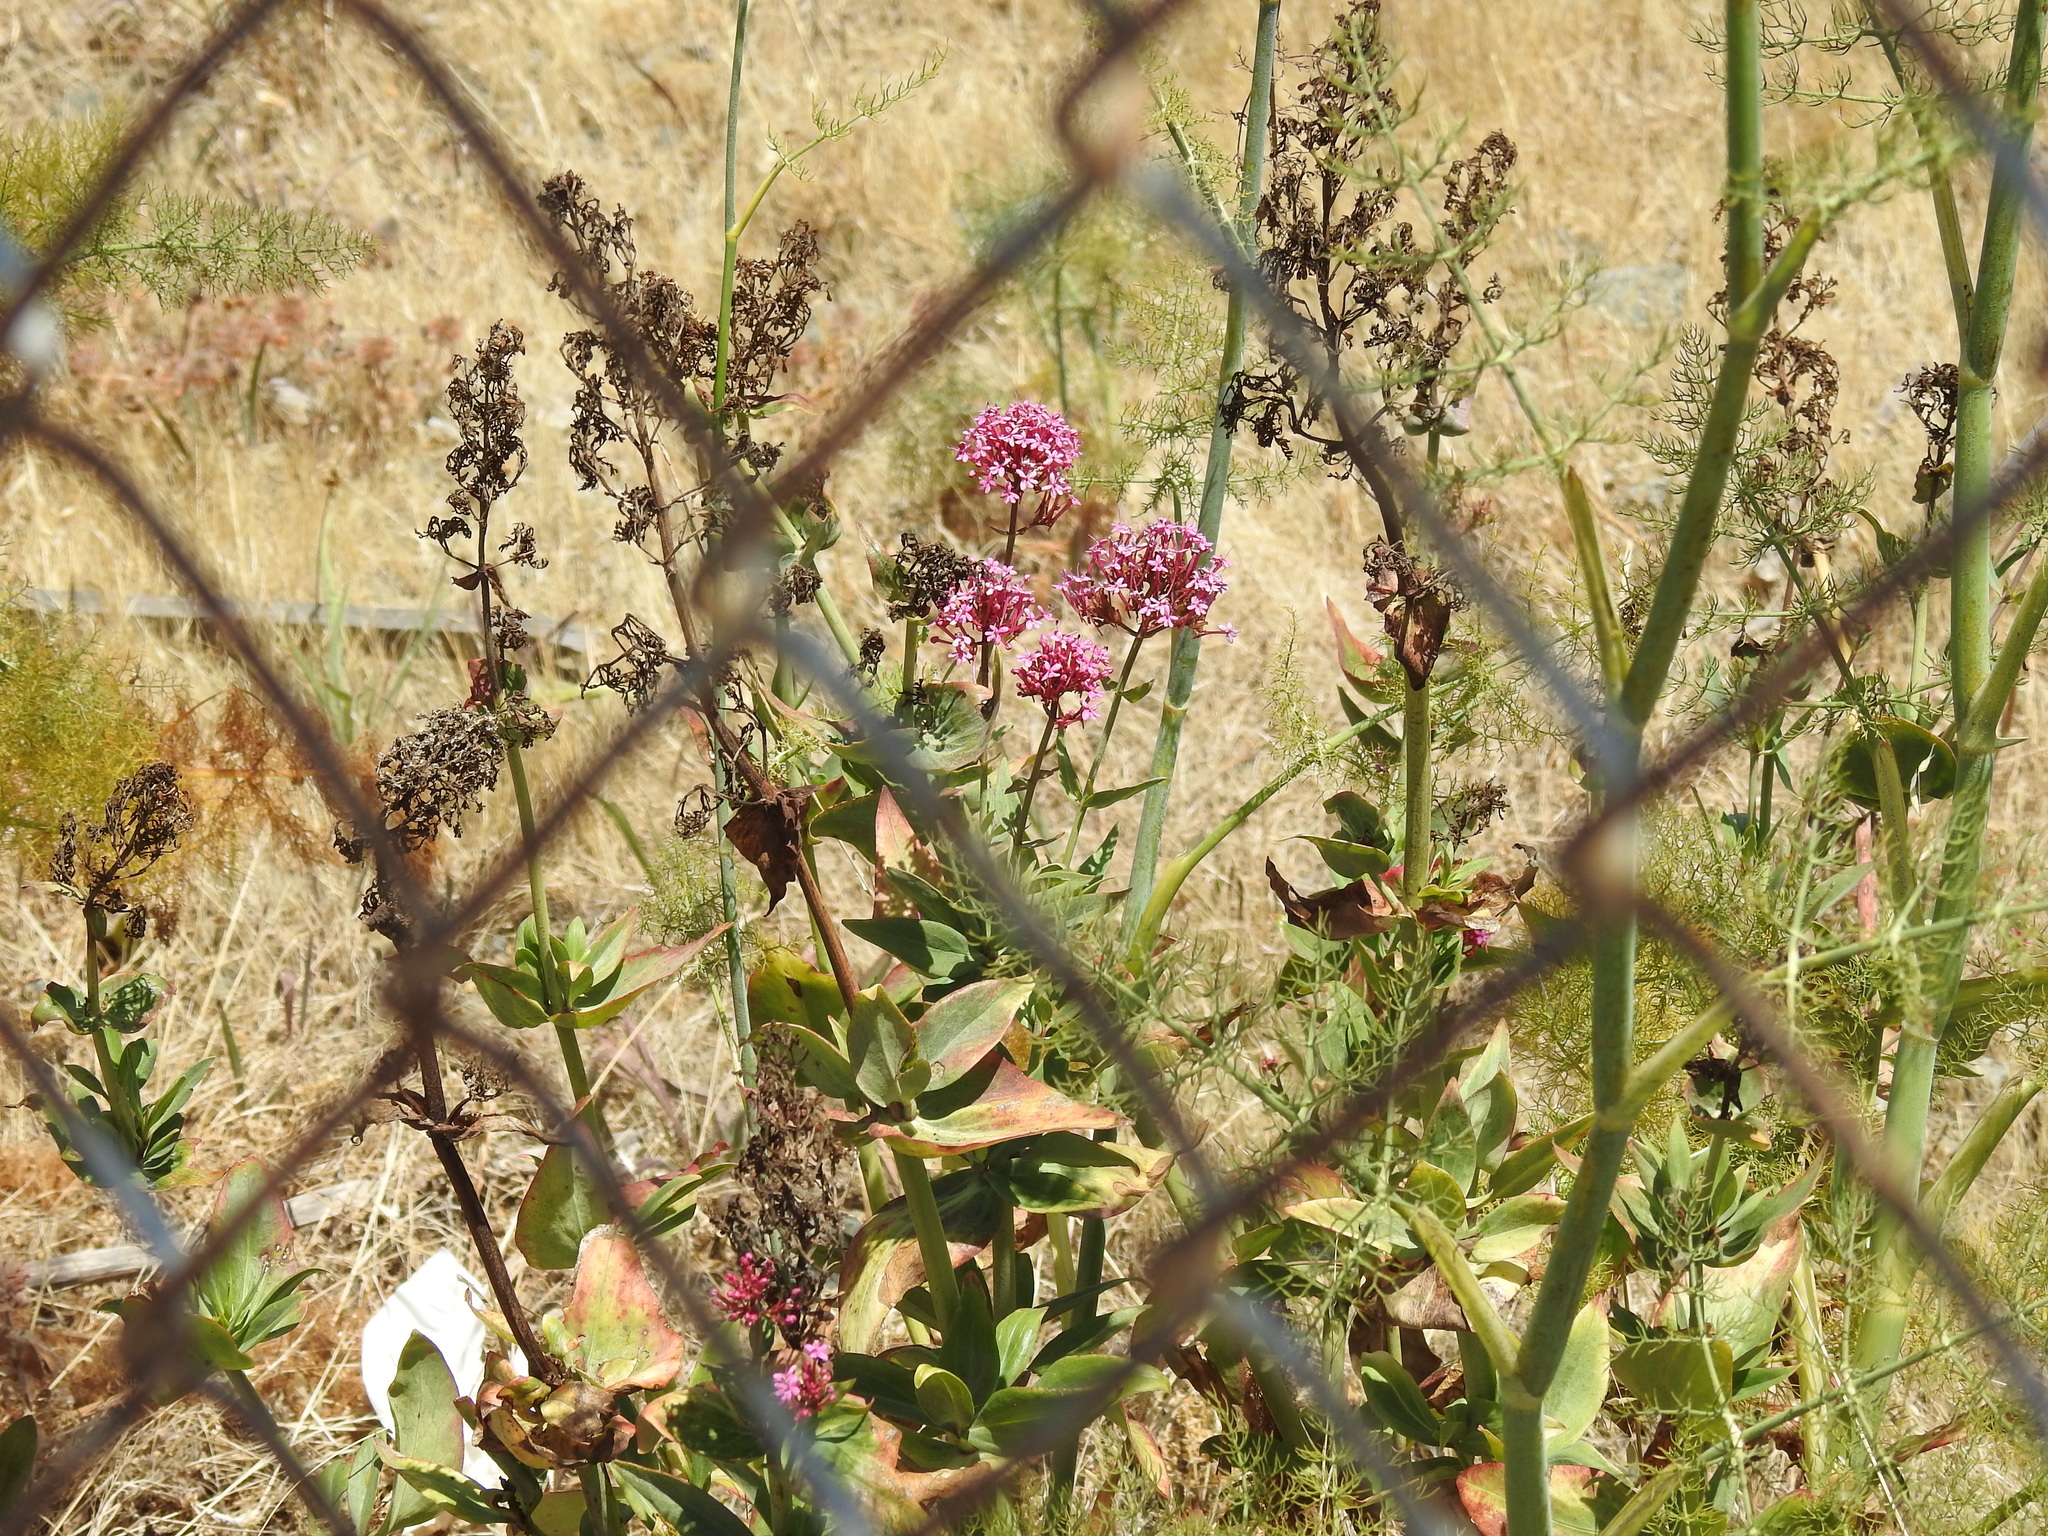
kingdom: Plantae
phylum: Tracheophyta
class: Magnoliopsida
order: Dipsacales
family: Caprifoliaceae
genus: Centranthus
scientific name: Centranthus ruber
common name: Red valerian
